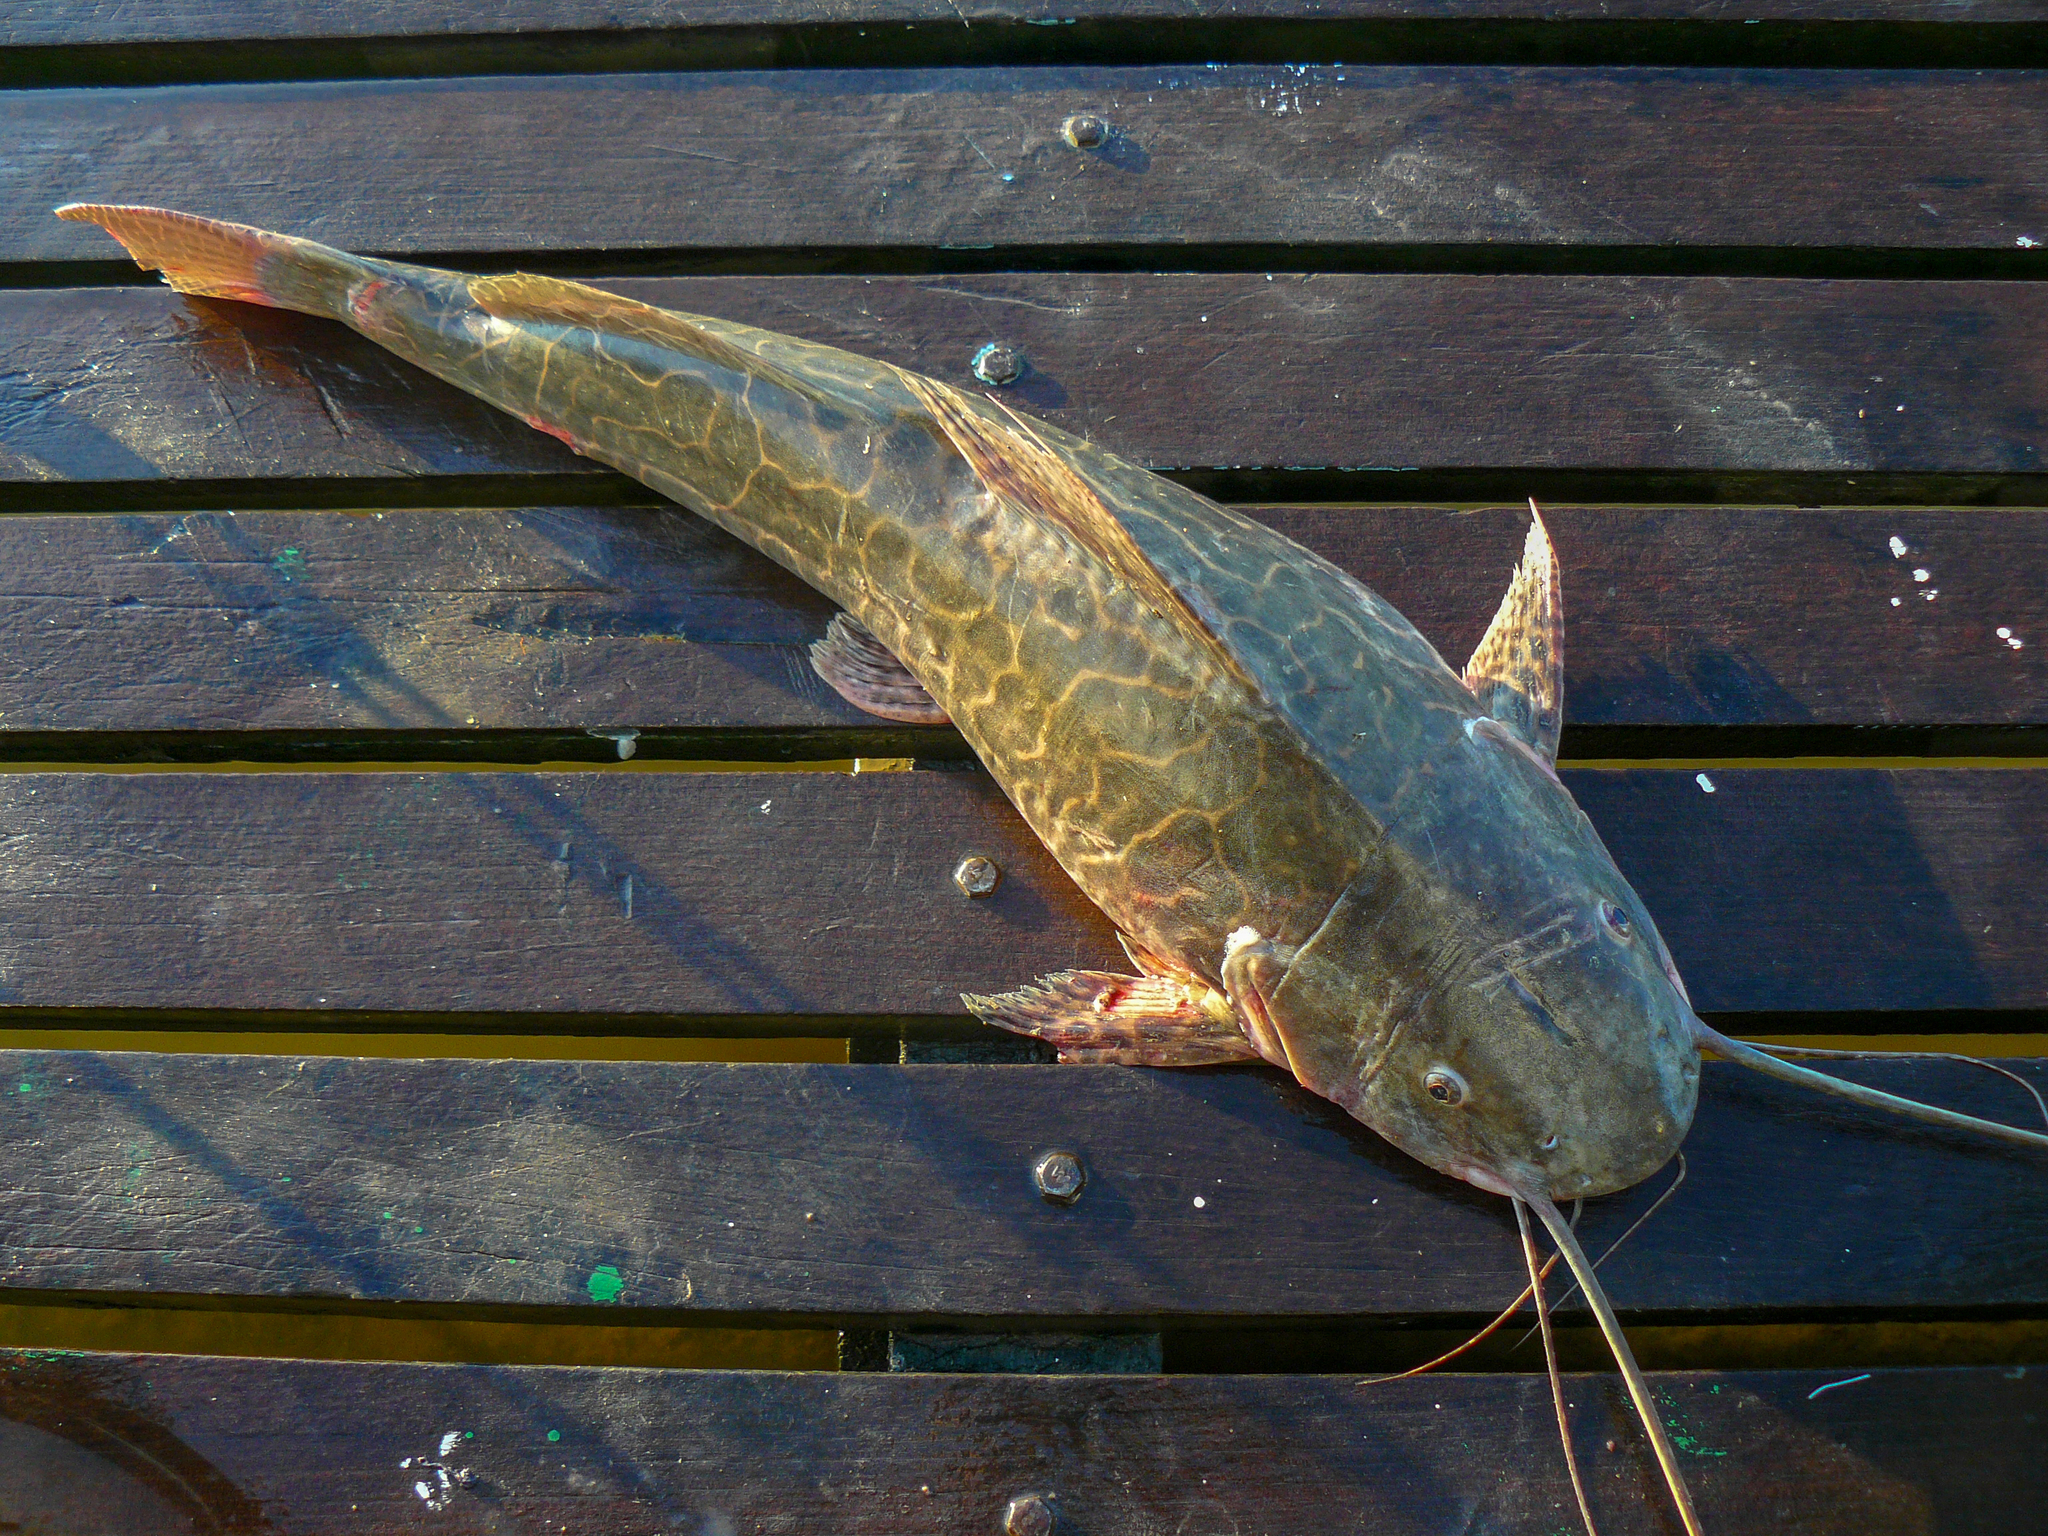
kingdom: Animalia
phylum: Chordata
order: Siluriformes
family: Pimelodidae
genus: Leiarius
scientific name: Leiarius marmoratus
